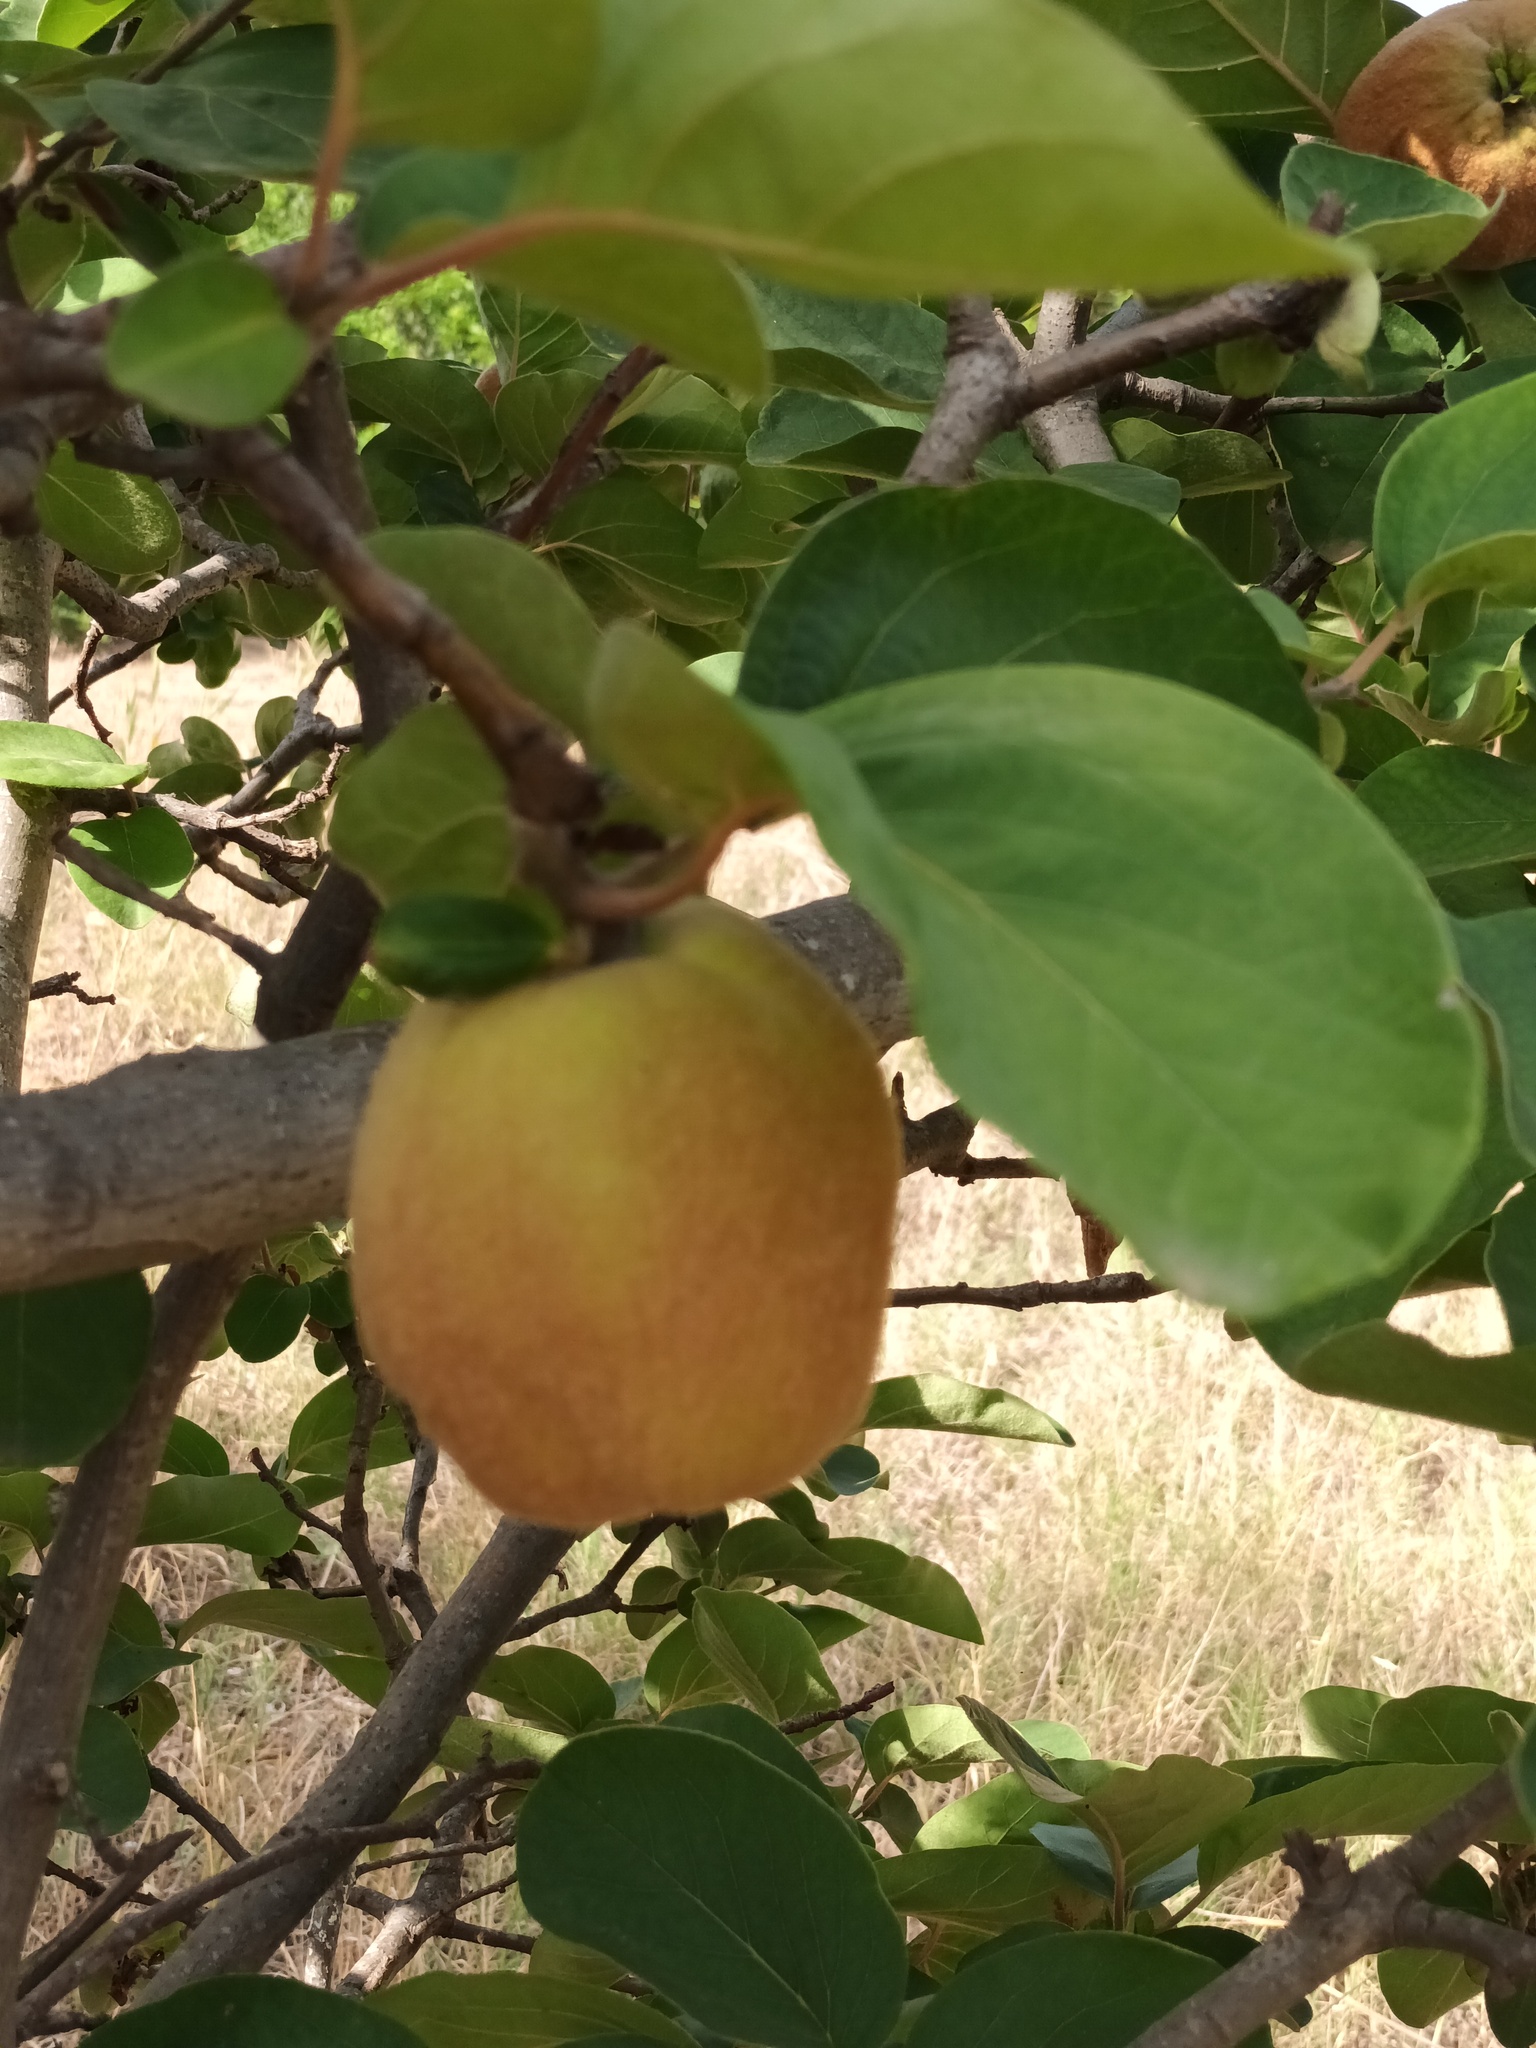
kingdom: Plantae
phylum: Tracheophyta
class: Magnoliopsida
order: Rosales
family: Rosaceae
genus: Cydonia
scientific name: Cydonia oblonga
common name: Quince
